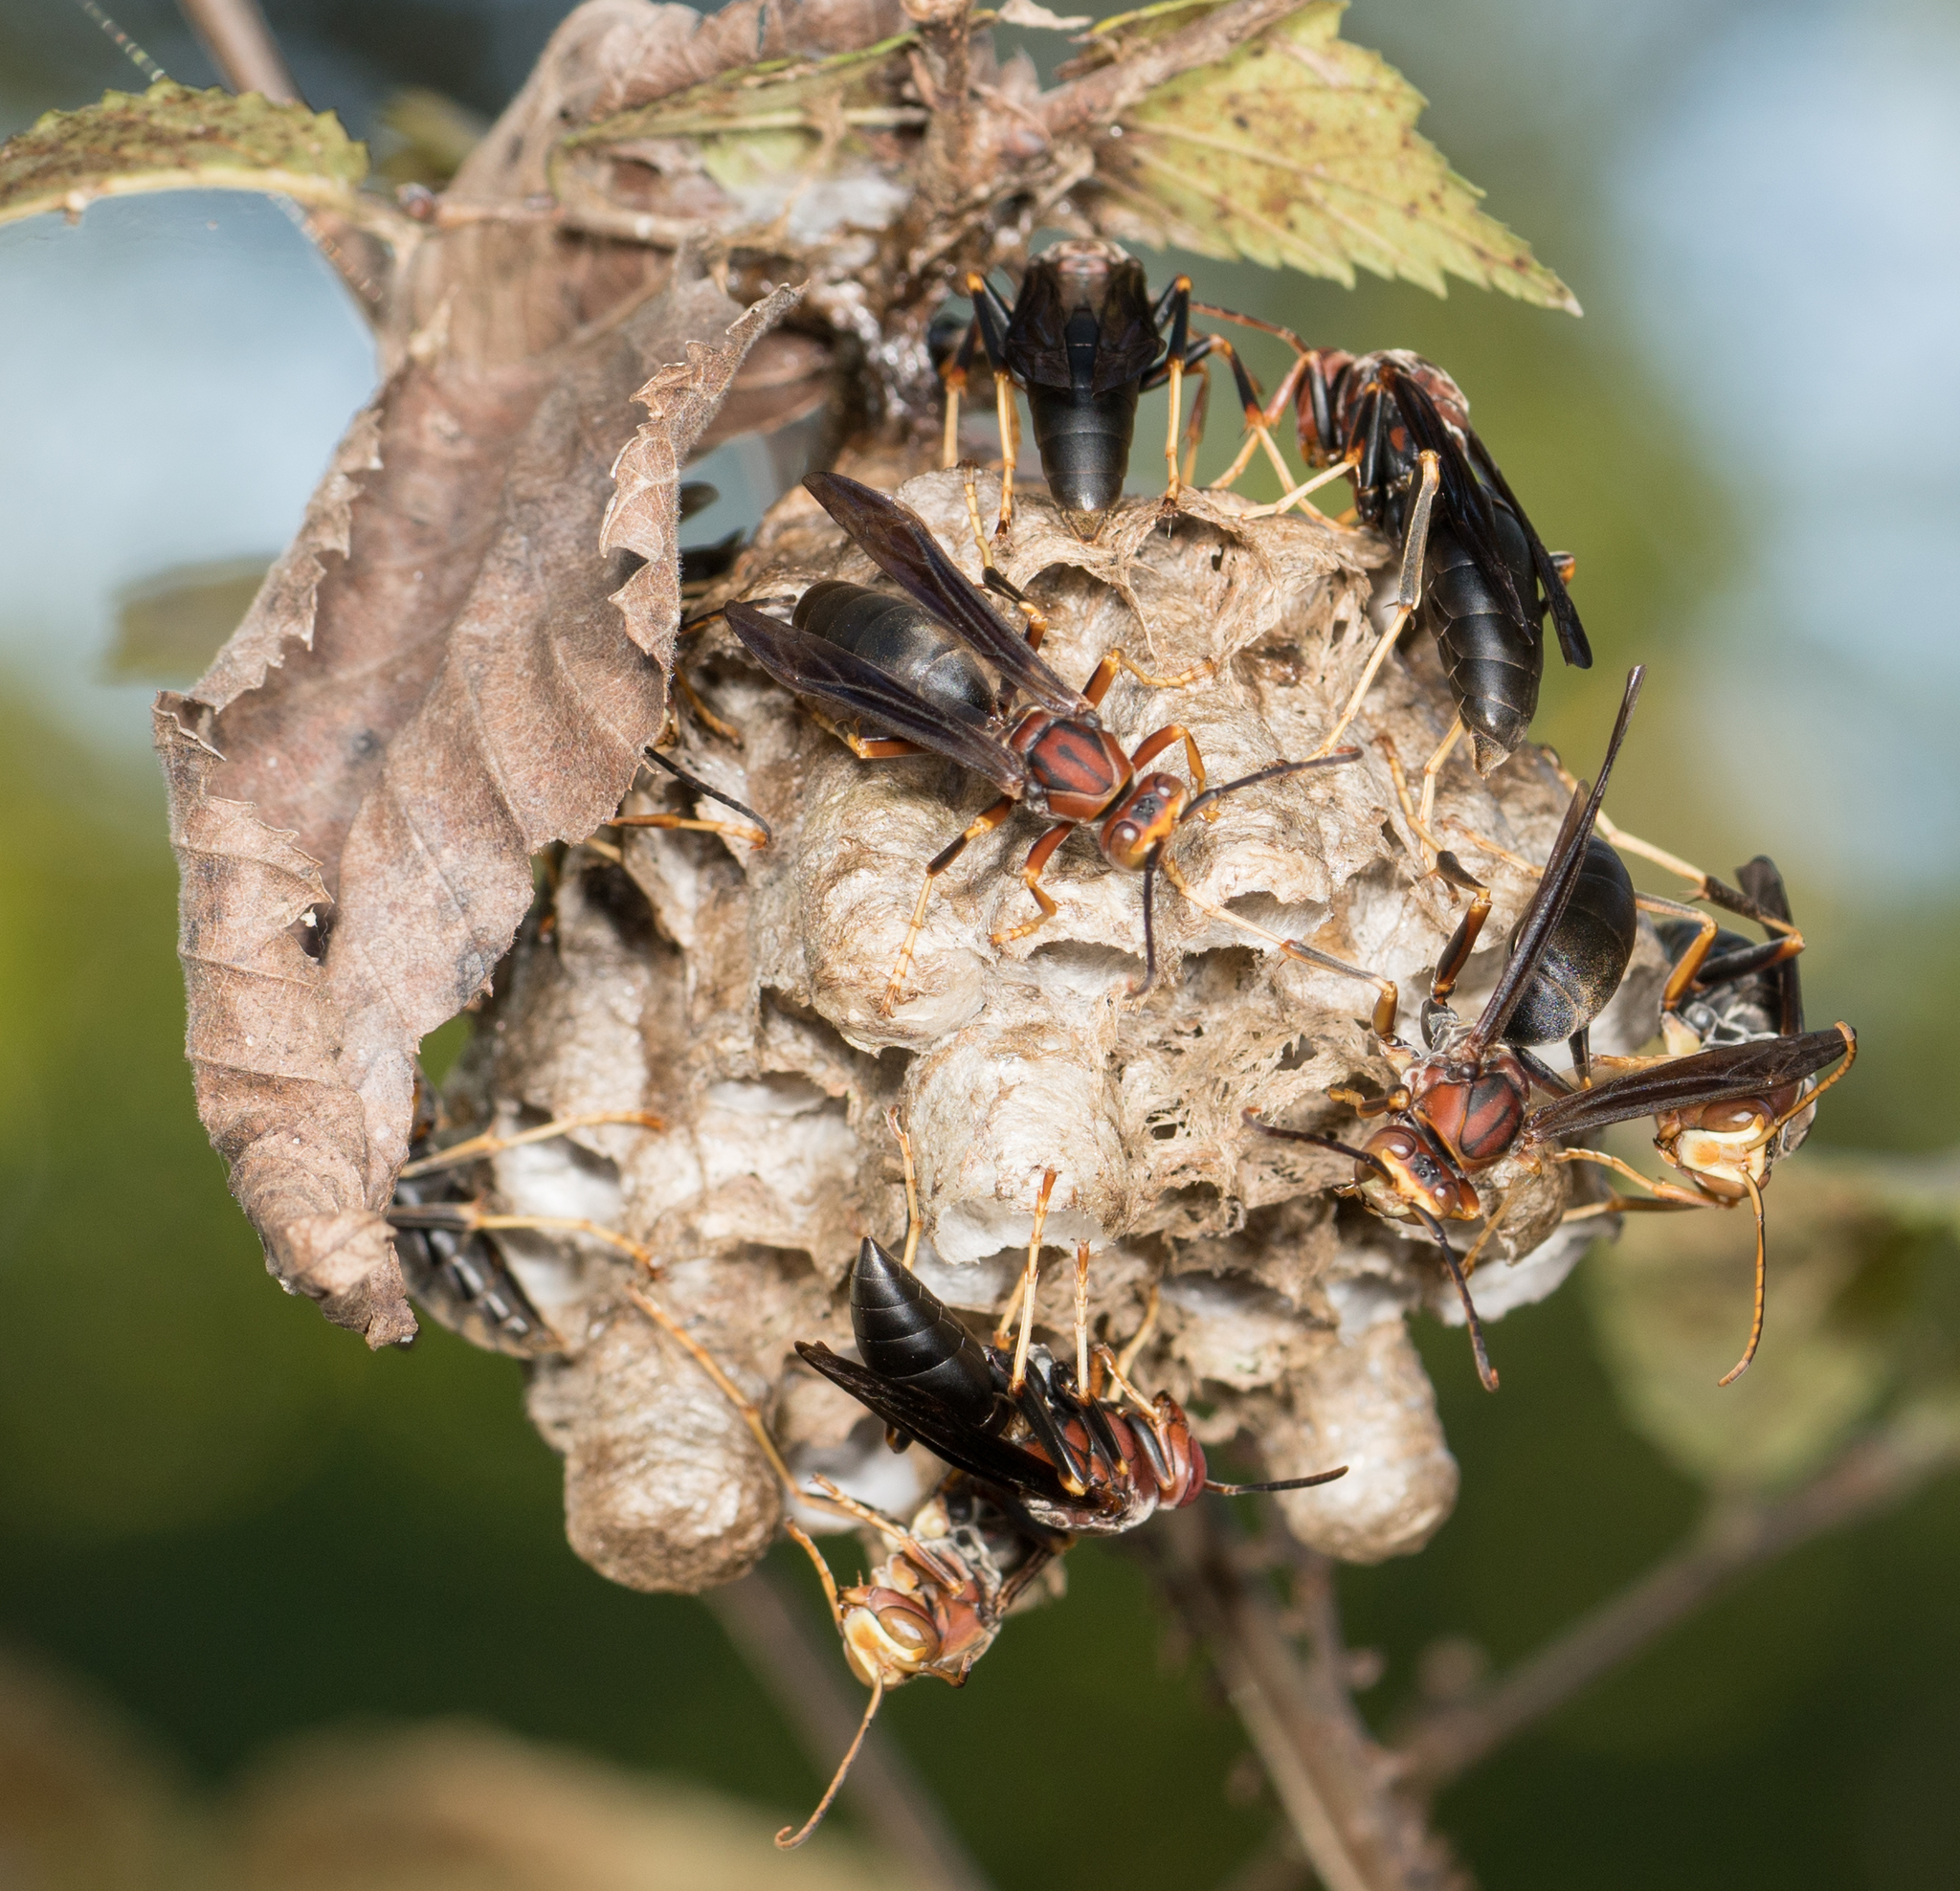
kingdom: Animalia
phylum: Arthropoda
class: Insecta
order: Hymenoptera
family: Eumenidae
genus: Polistes
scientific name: Polistes metricus
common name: Metric paper wasp
